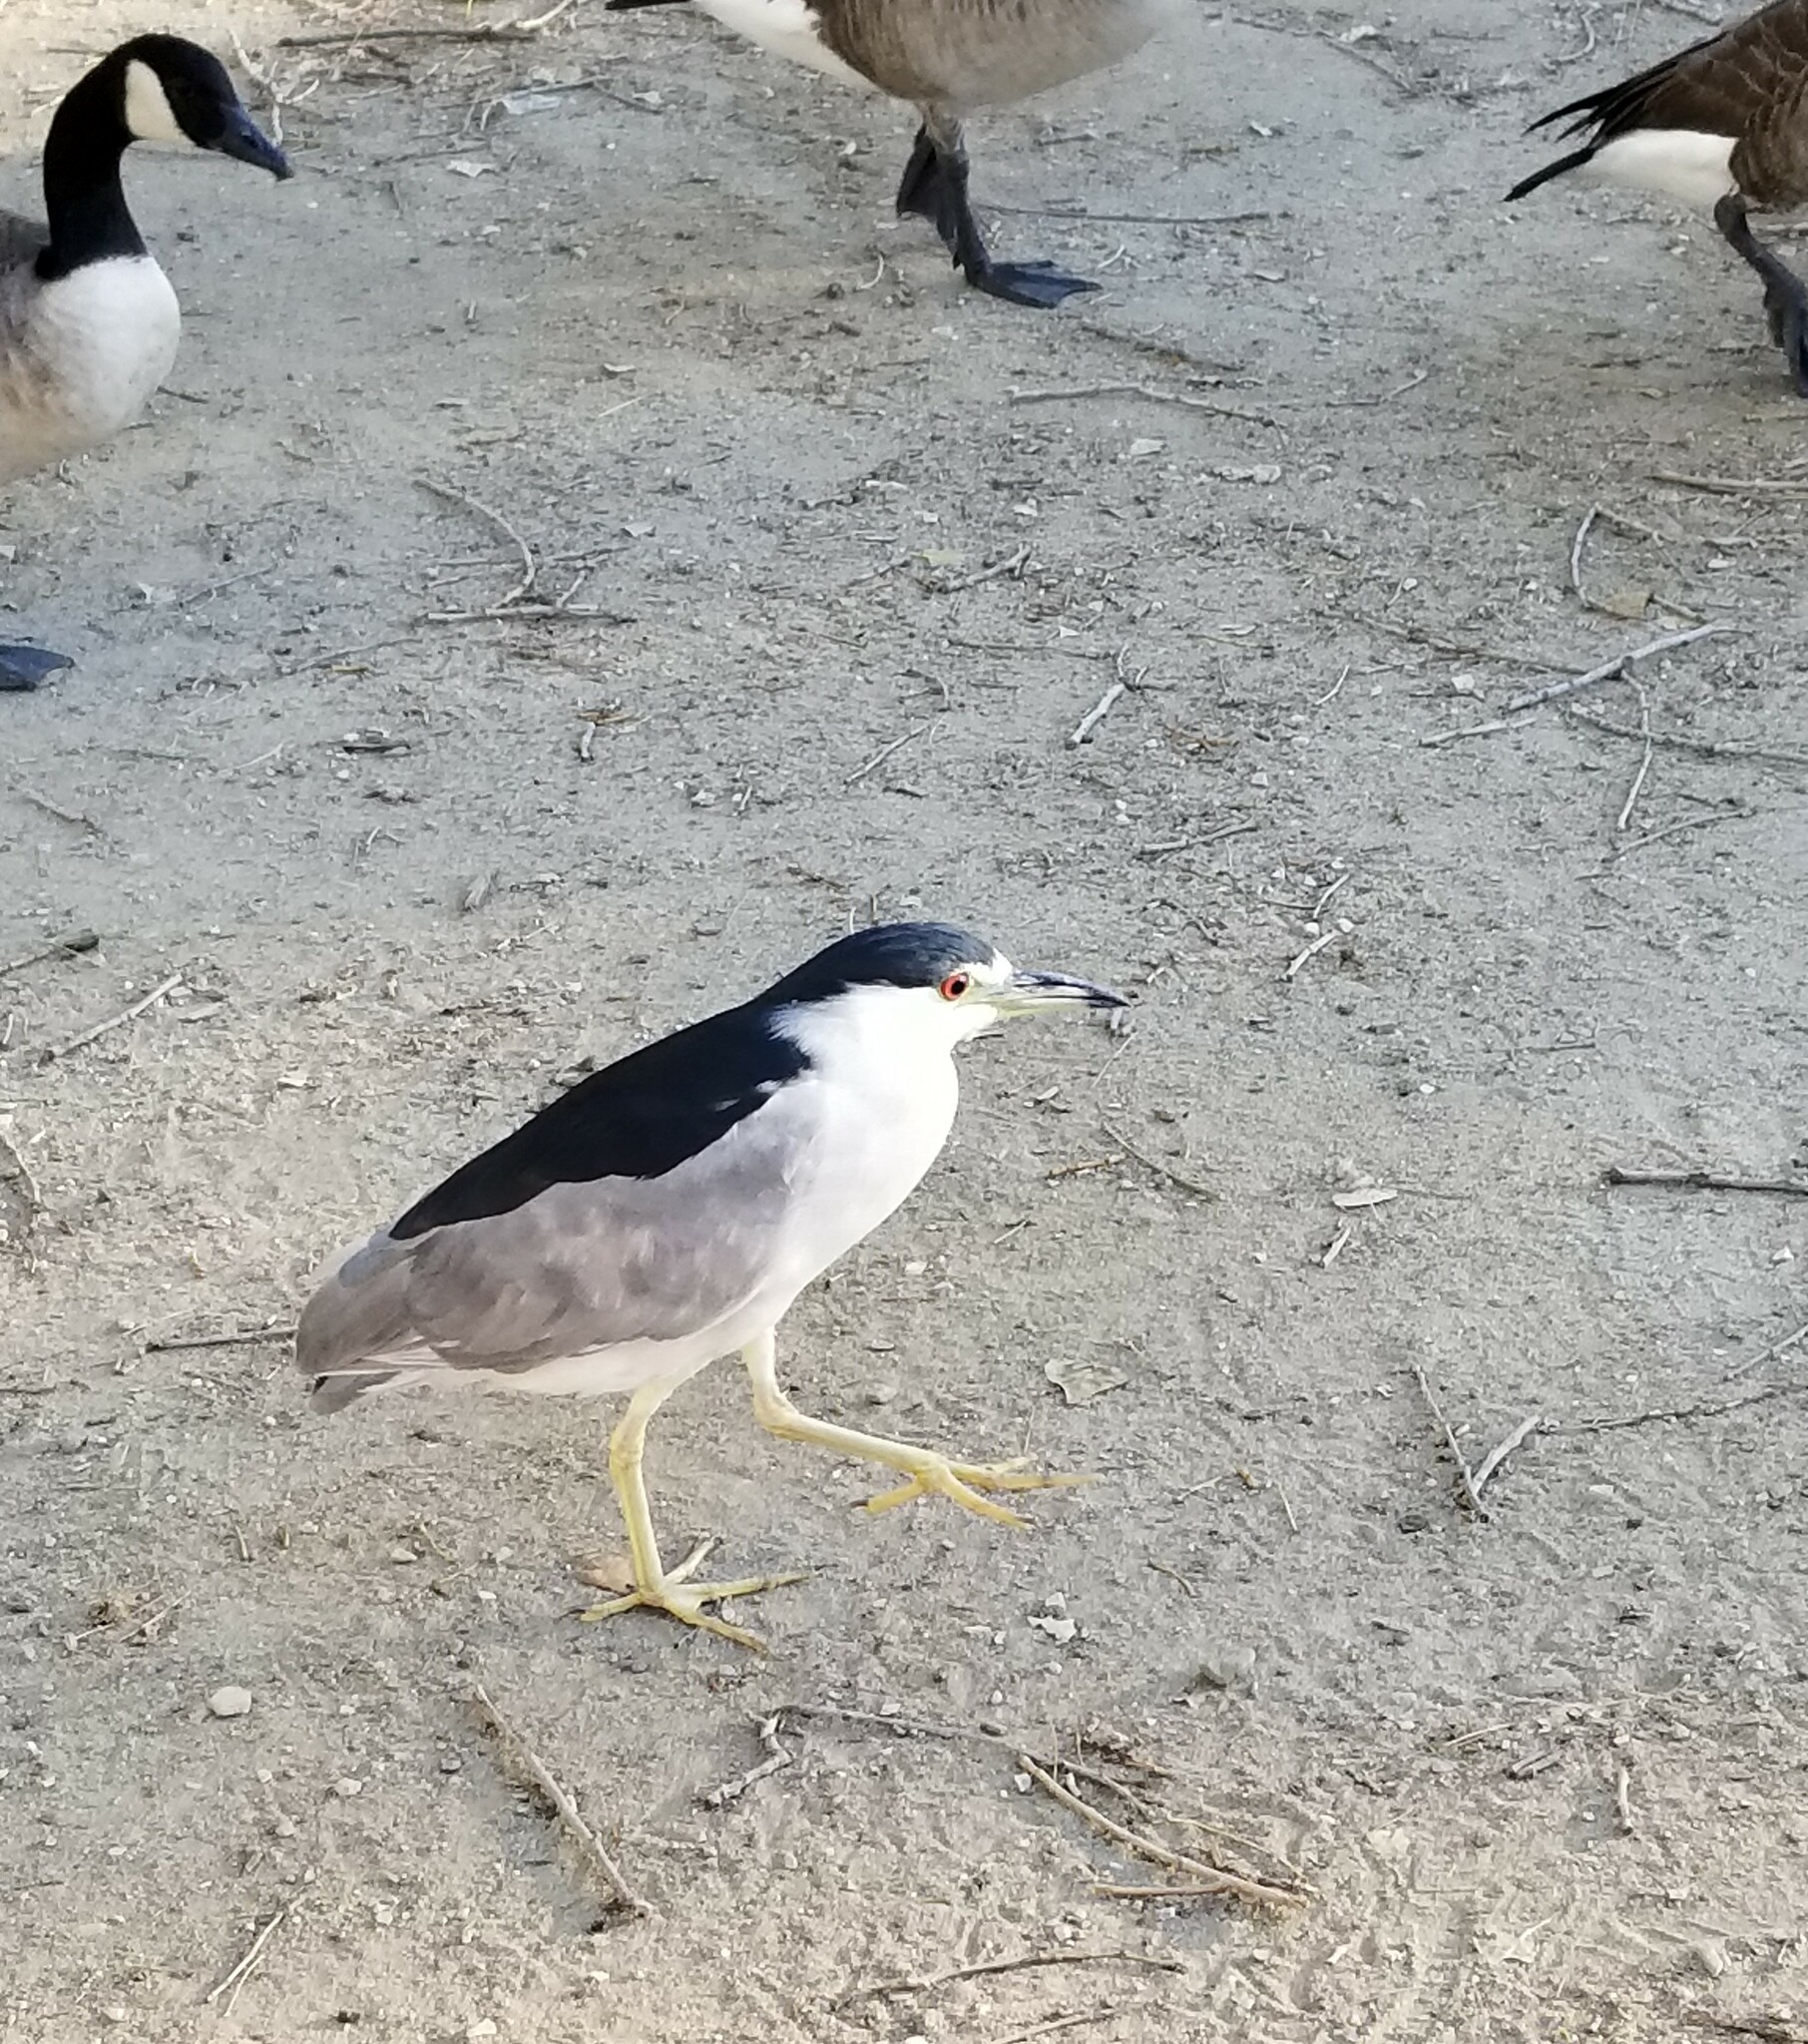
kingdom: Animalia
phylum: Chordata
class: Aves
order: Pelecaniformes
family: Ardeidae
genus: Nycticorax
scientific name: Nycticorax nycticorax
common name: Black-crowned night heron
